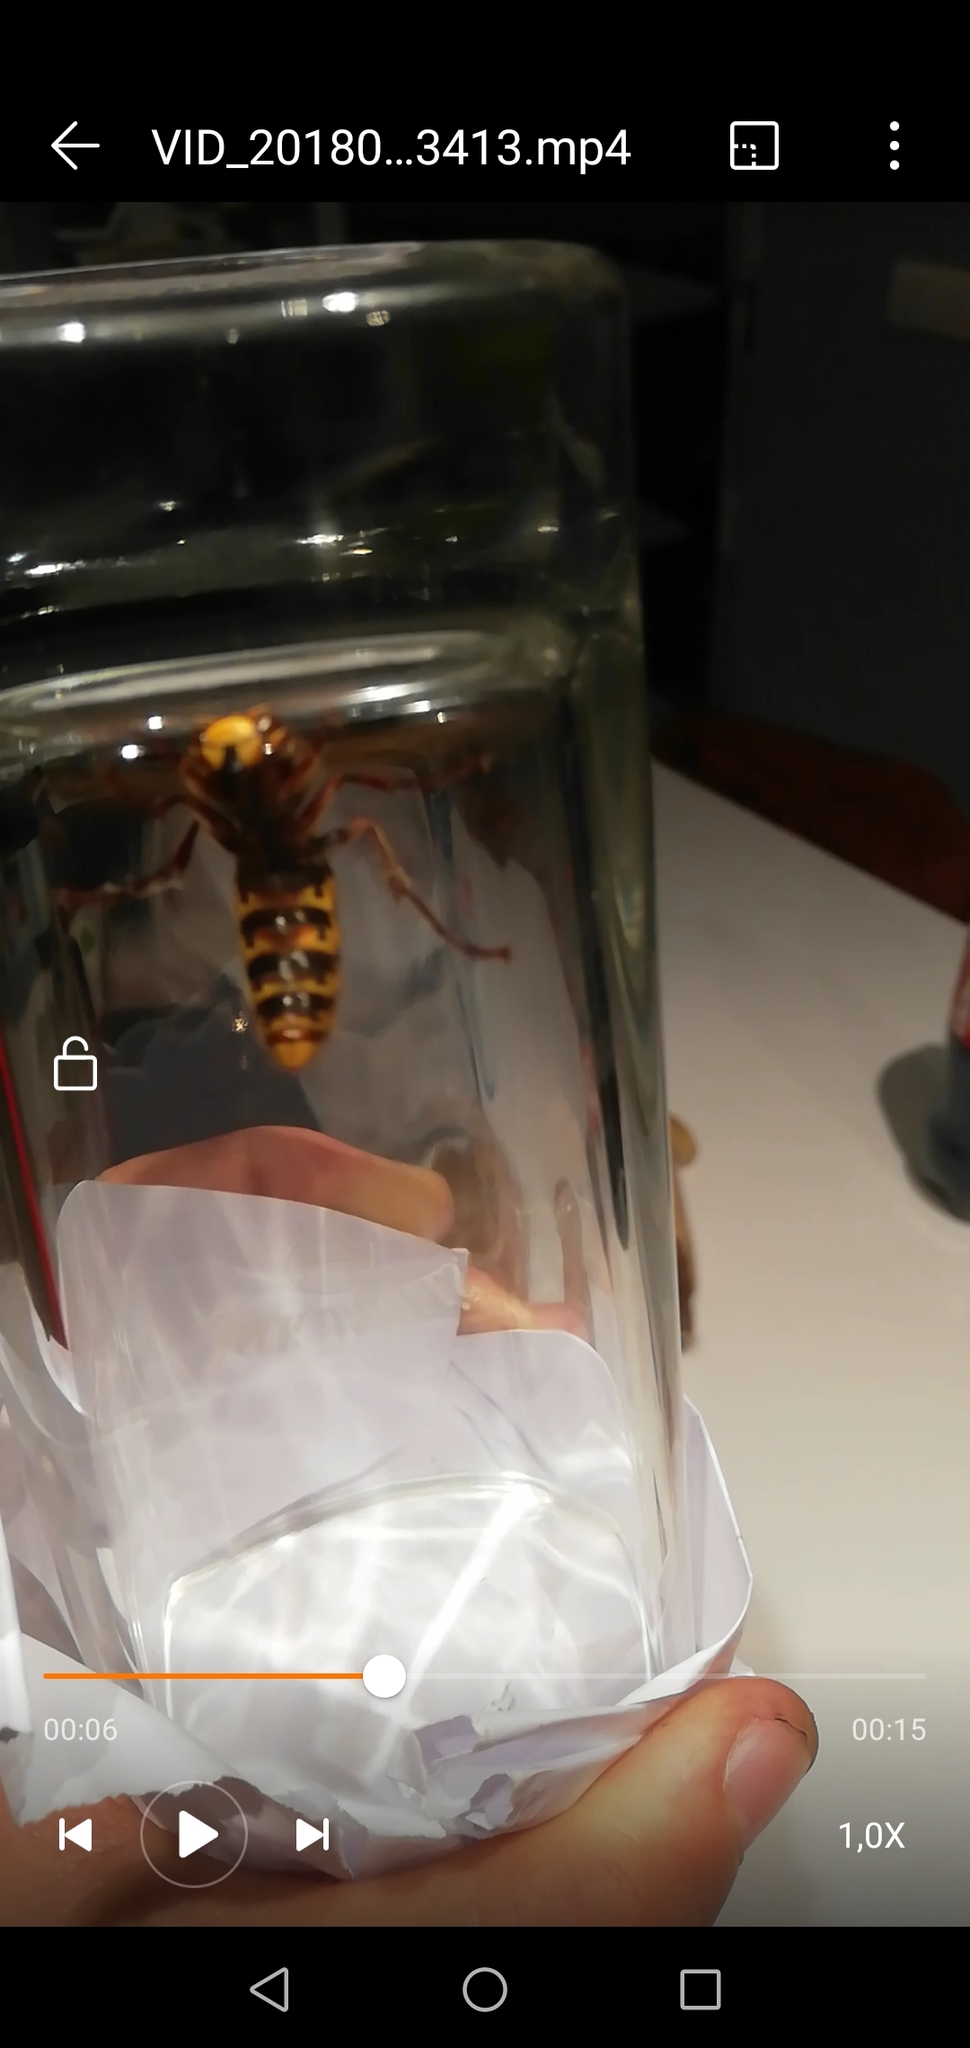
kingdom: Animalia
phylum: Arthropoda
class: Insecta
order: Hymenoptera
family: Vespidae
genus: Vespa
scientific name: Vespa crabro
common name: Hornet
